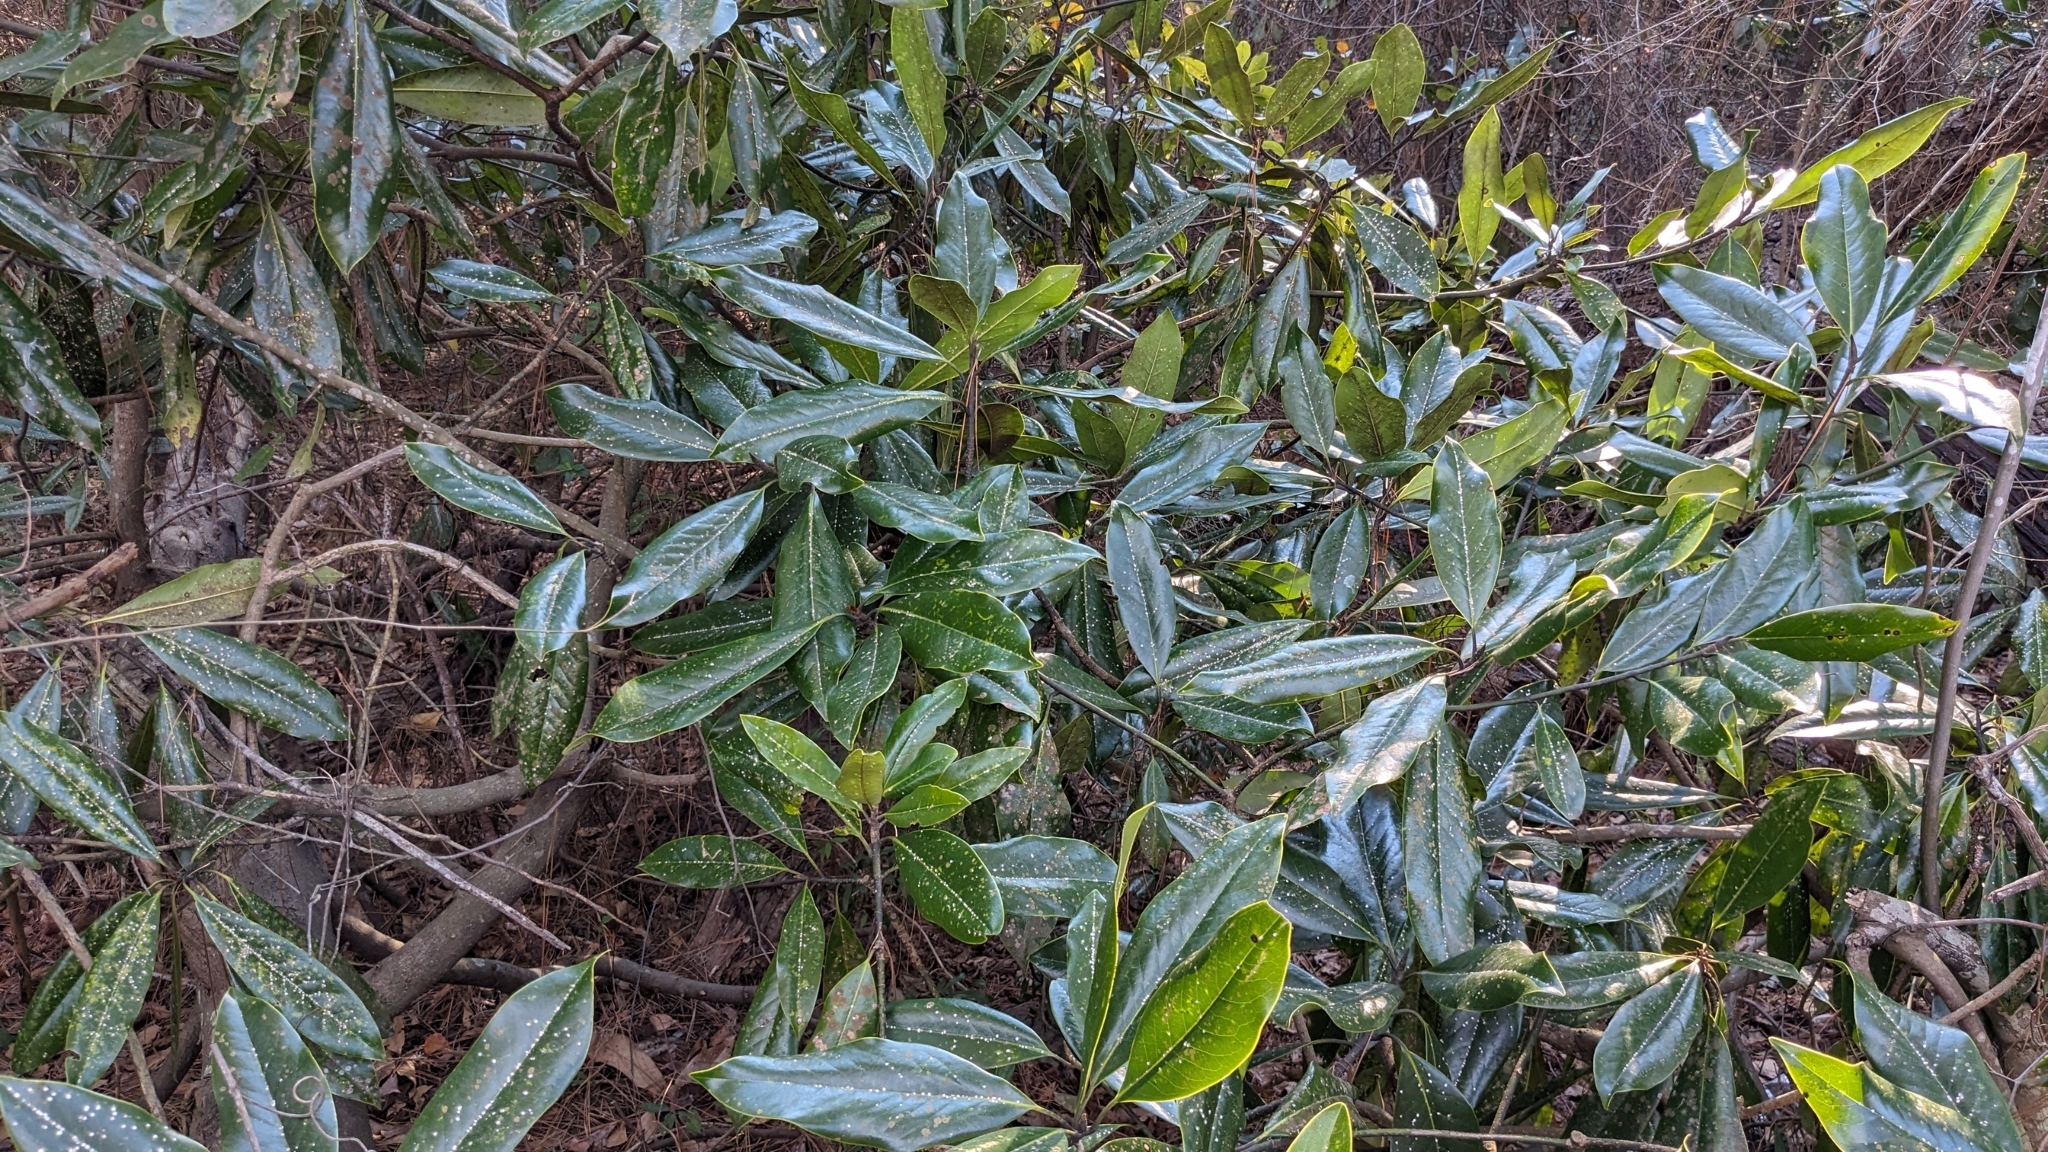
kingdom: Animalia
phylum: Arthropoda
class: Insecta
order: Hemiptera
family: Diaspididae
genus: Pseudaulacaspis
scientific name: Pseudaulacaspis cockerelli
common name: False oleander scale
